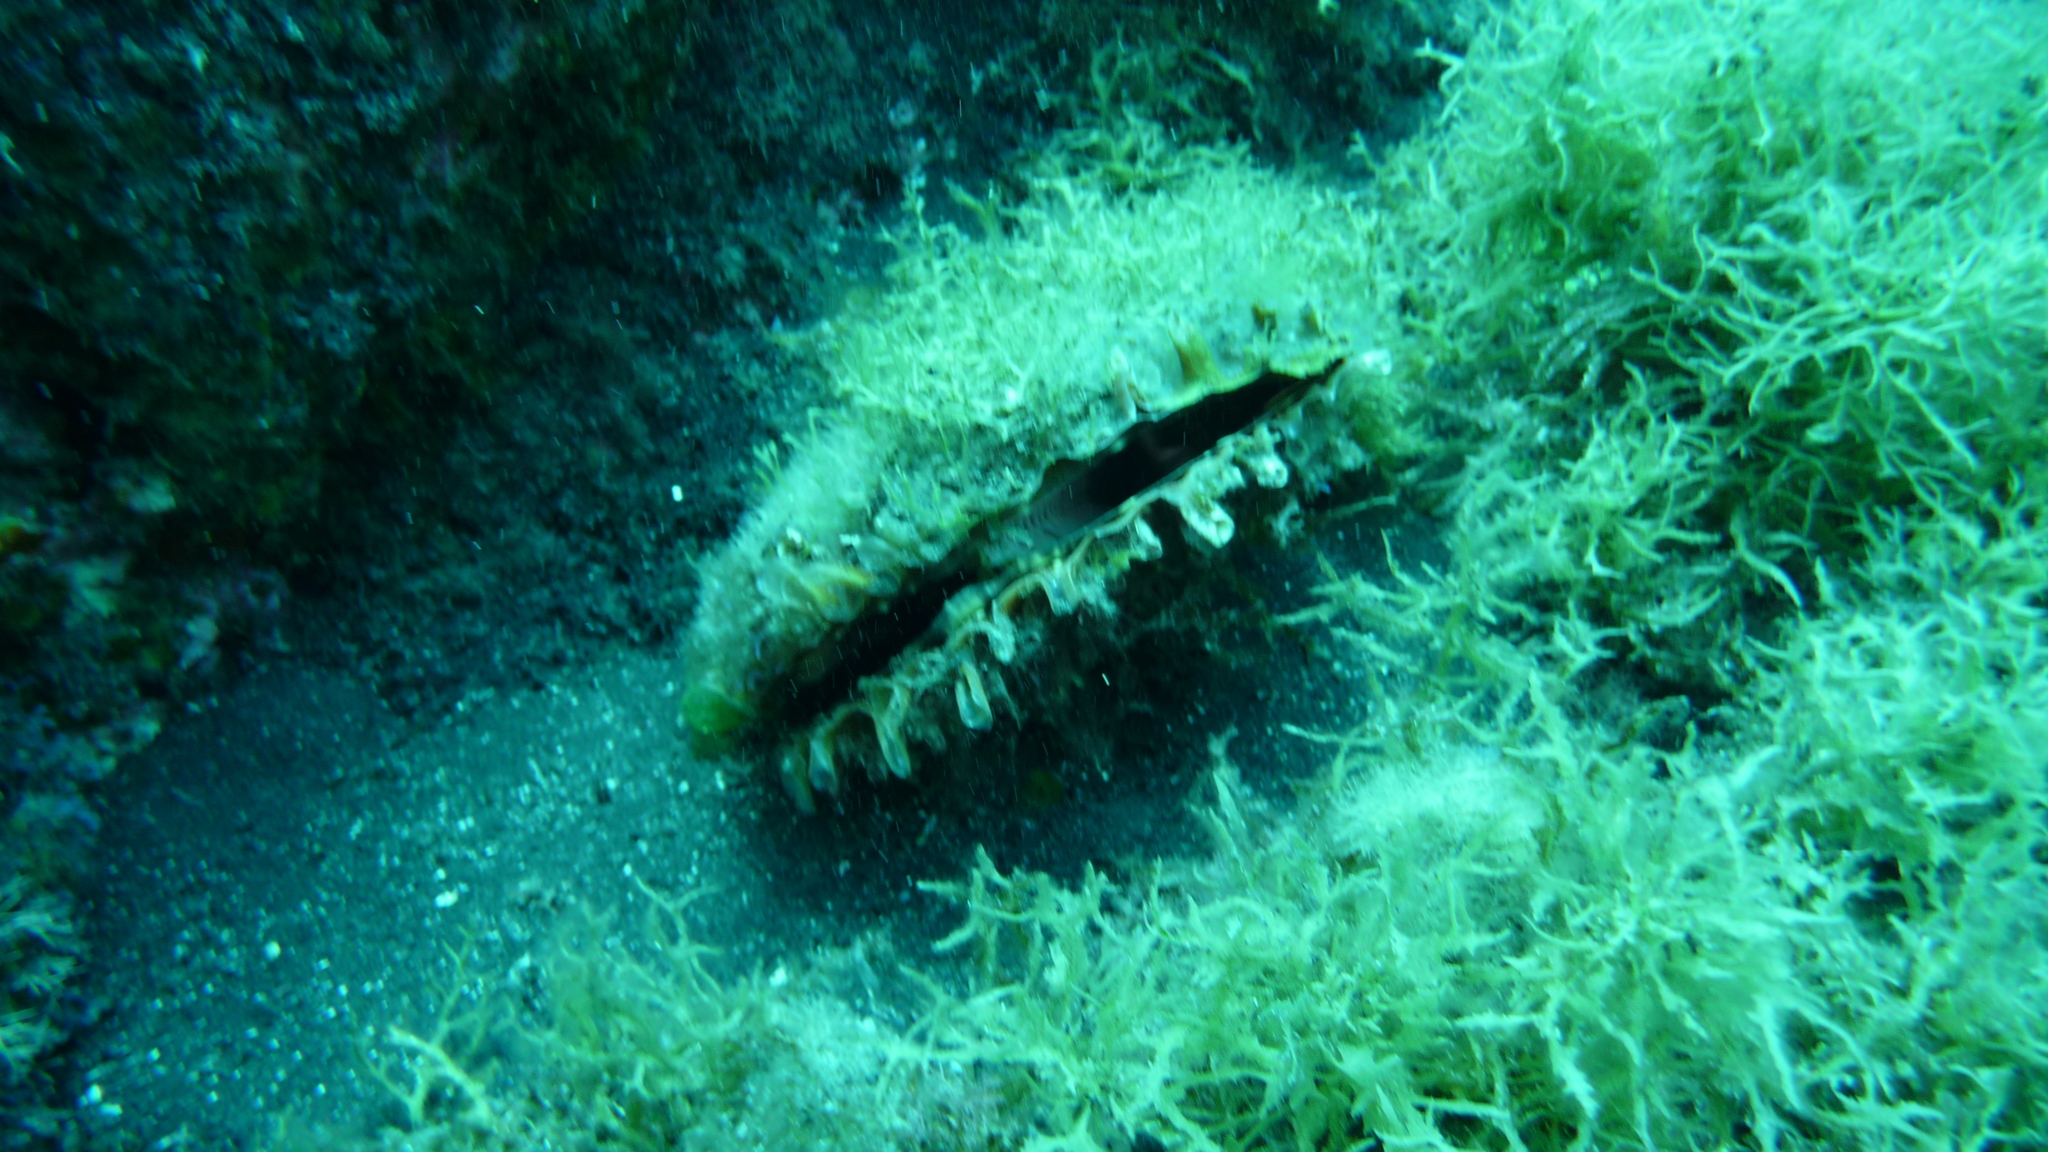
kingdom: Animalia
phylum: Mollusca
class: Bivalvia
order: Ostreida
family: Pinnidae
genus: Pinna
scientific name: Pinna rudis
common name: Rough penshell
